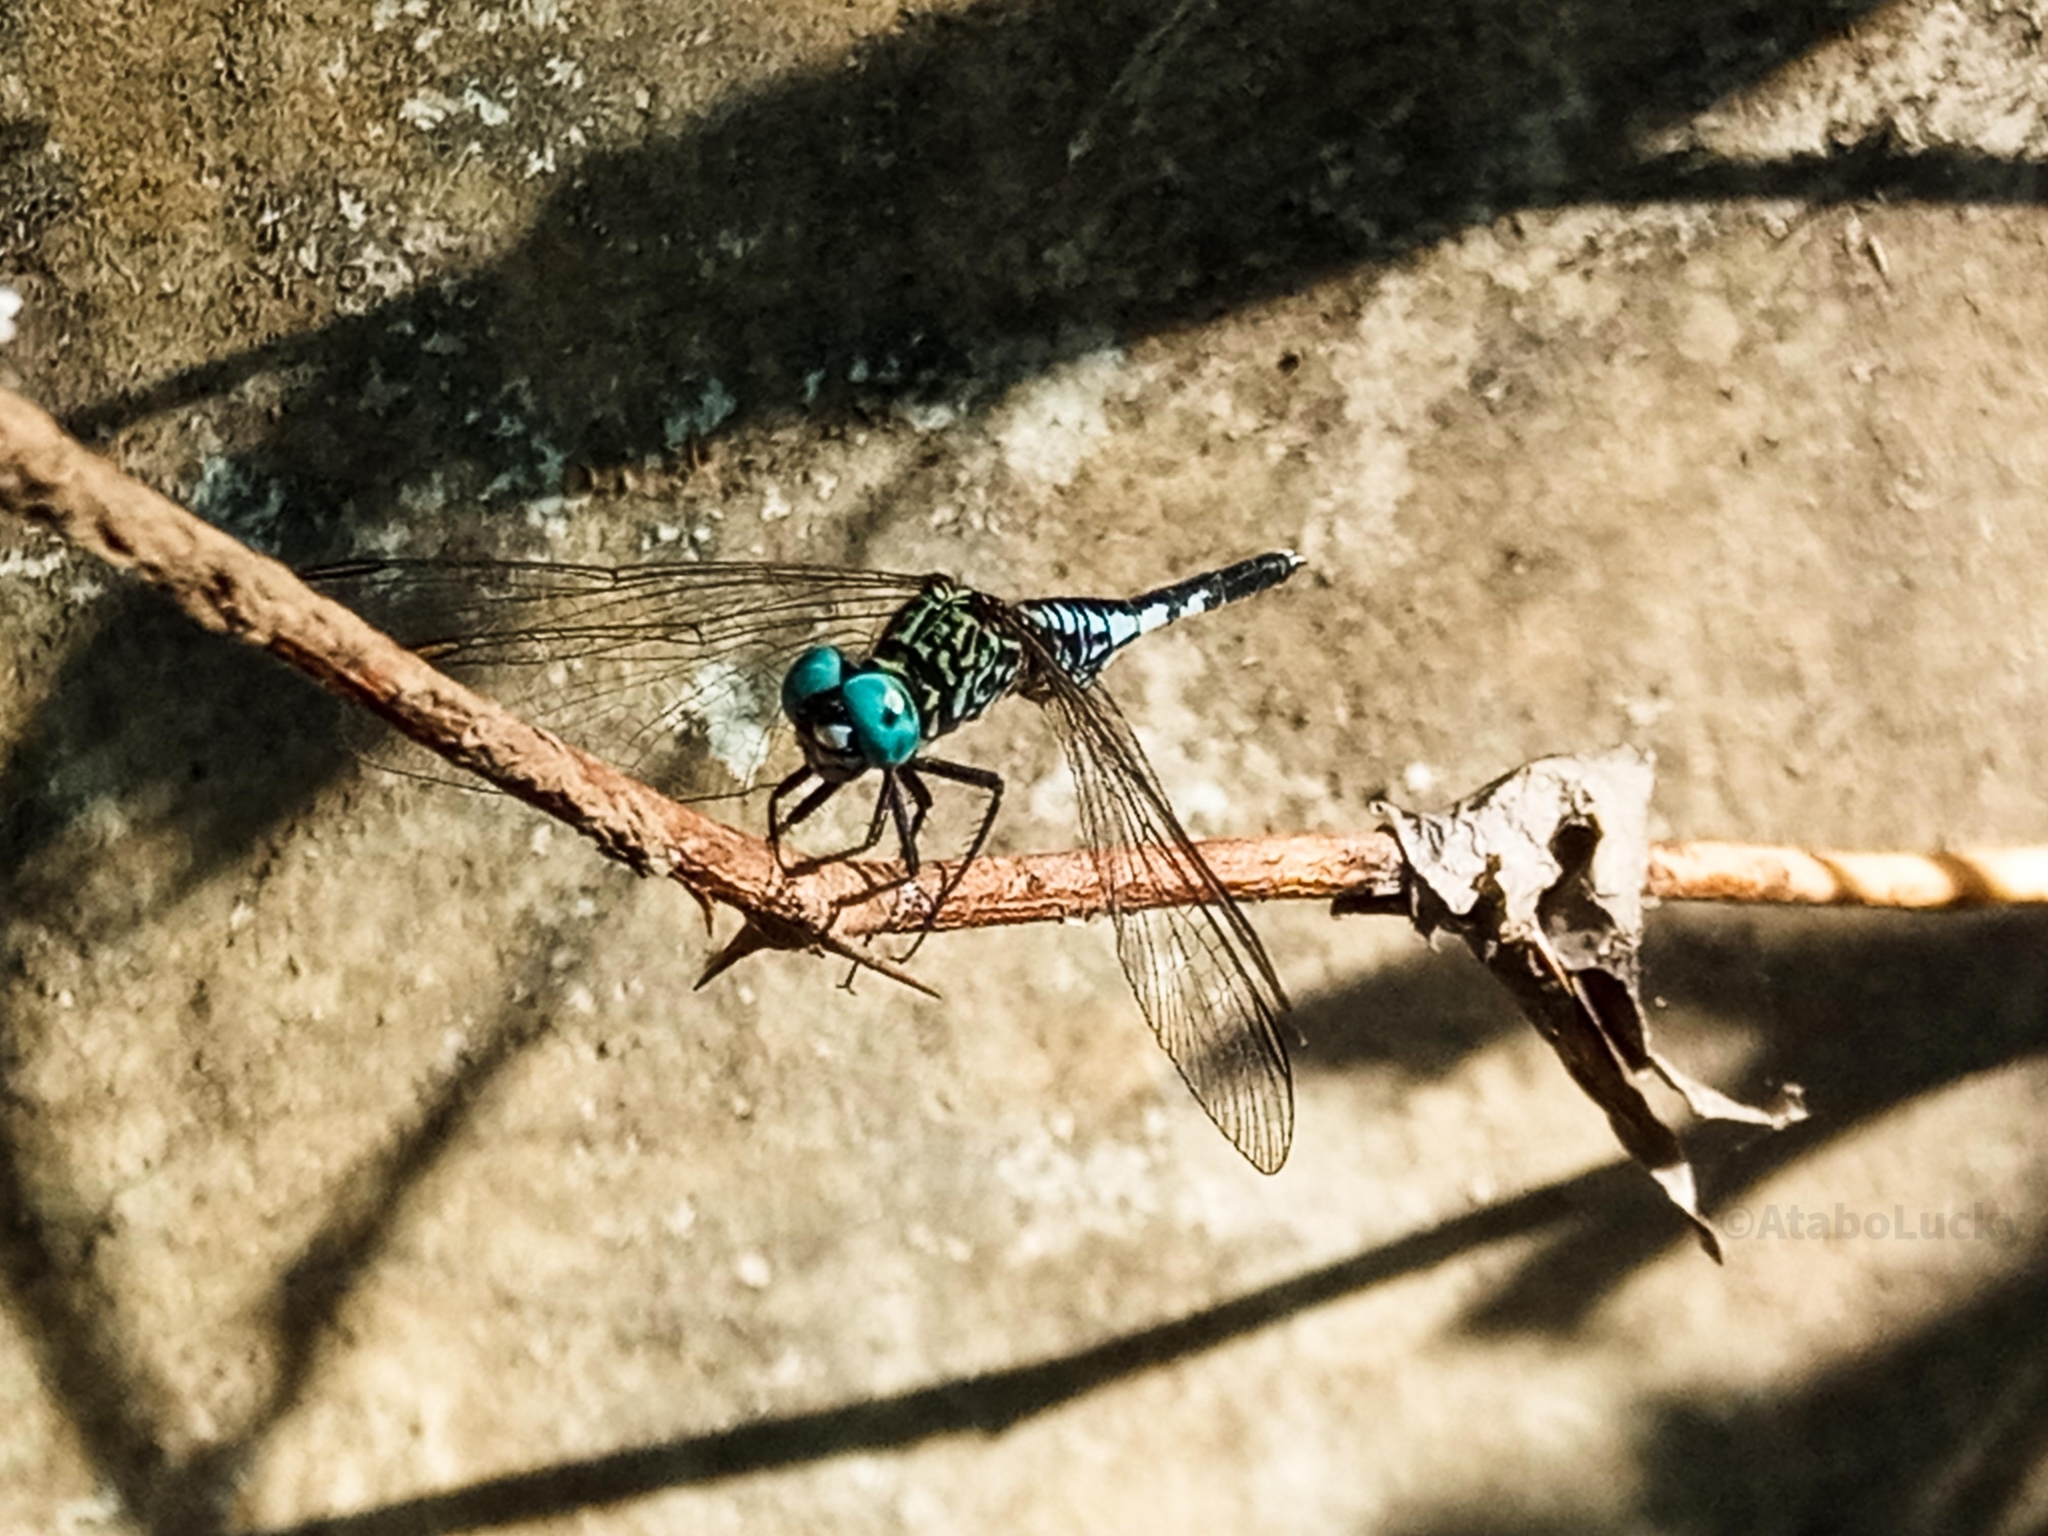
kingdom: Animalia
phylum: Arthropoda
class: Insecta
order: Odonata
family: Libellulidae
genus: Acisoma
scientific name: Acisoma inflatum
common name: Stout pintail
